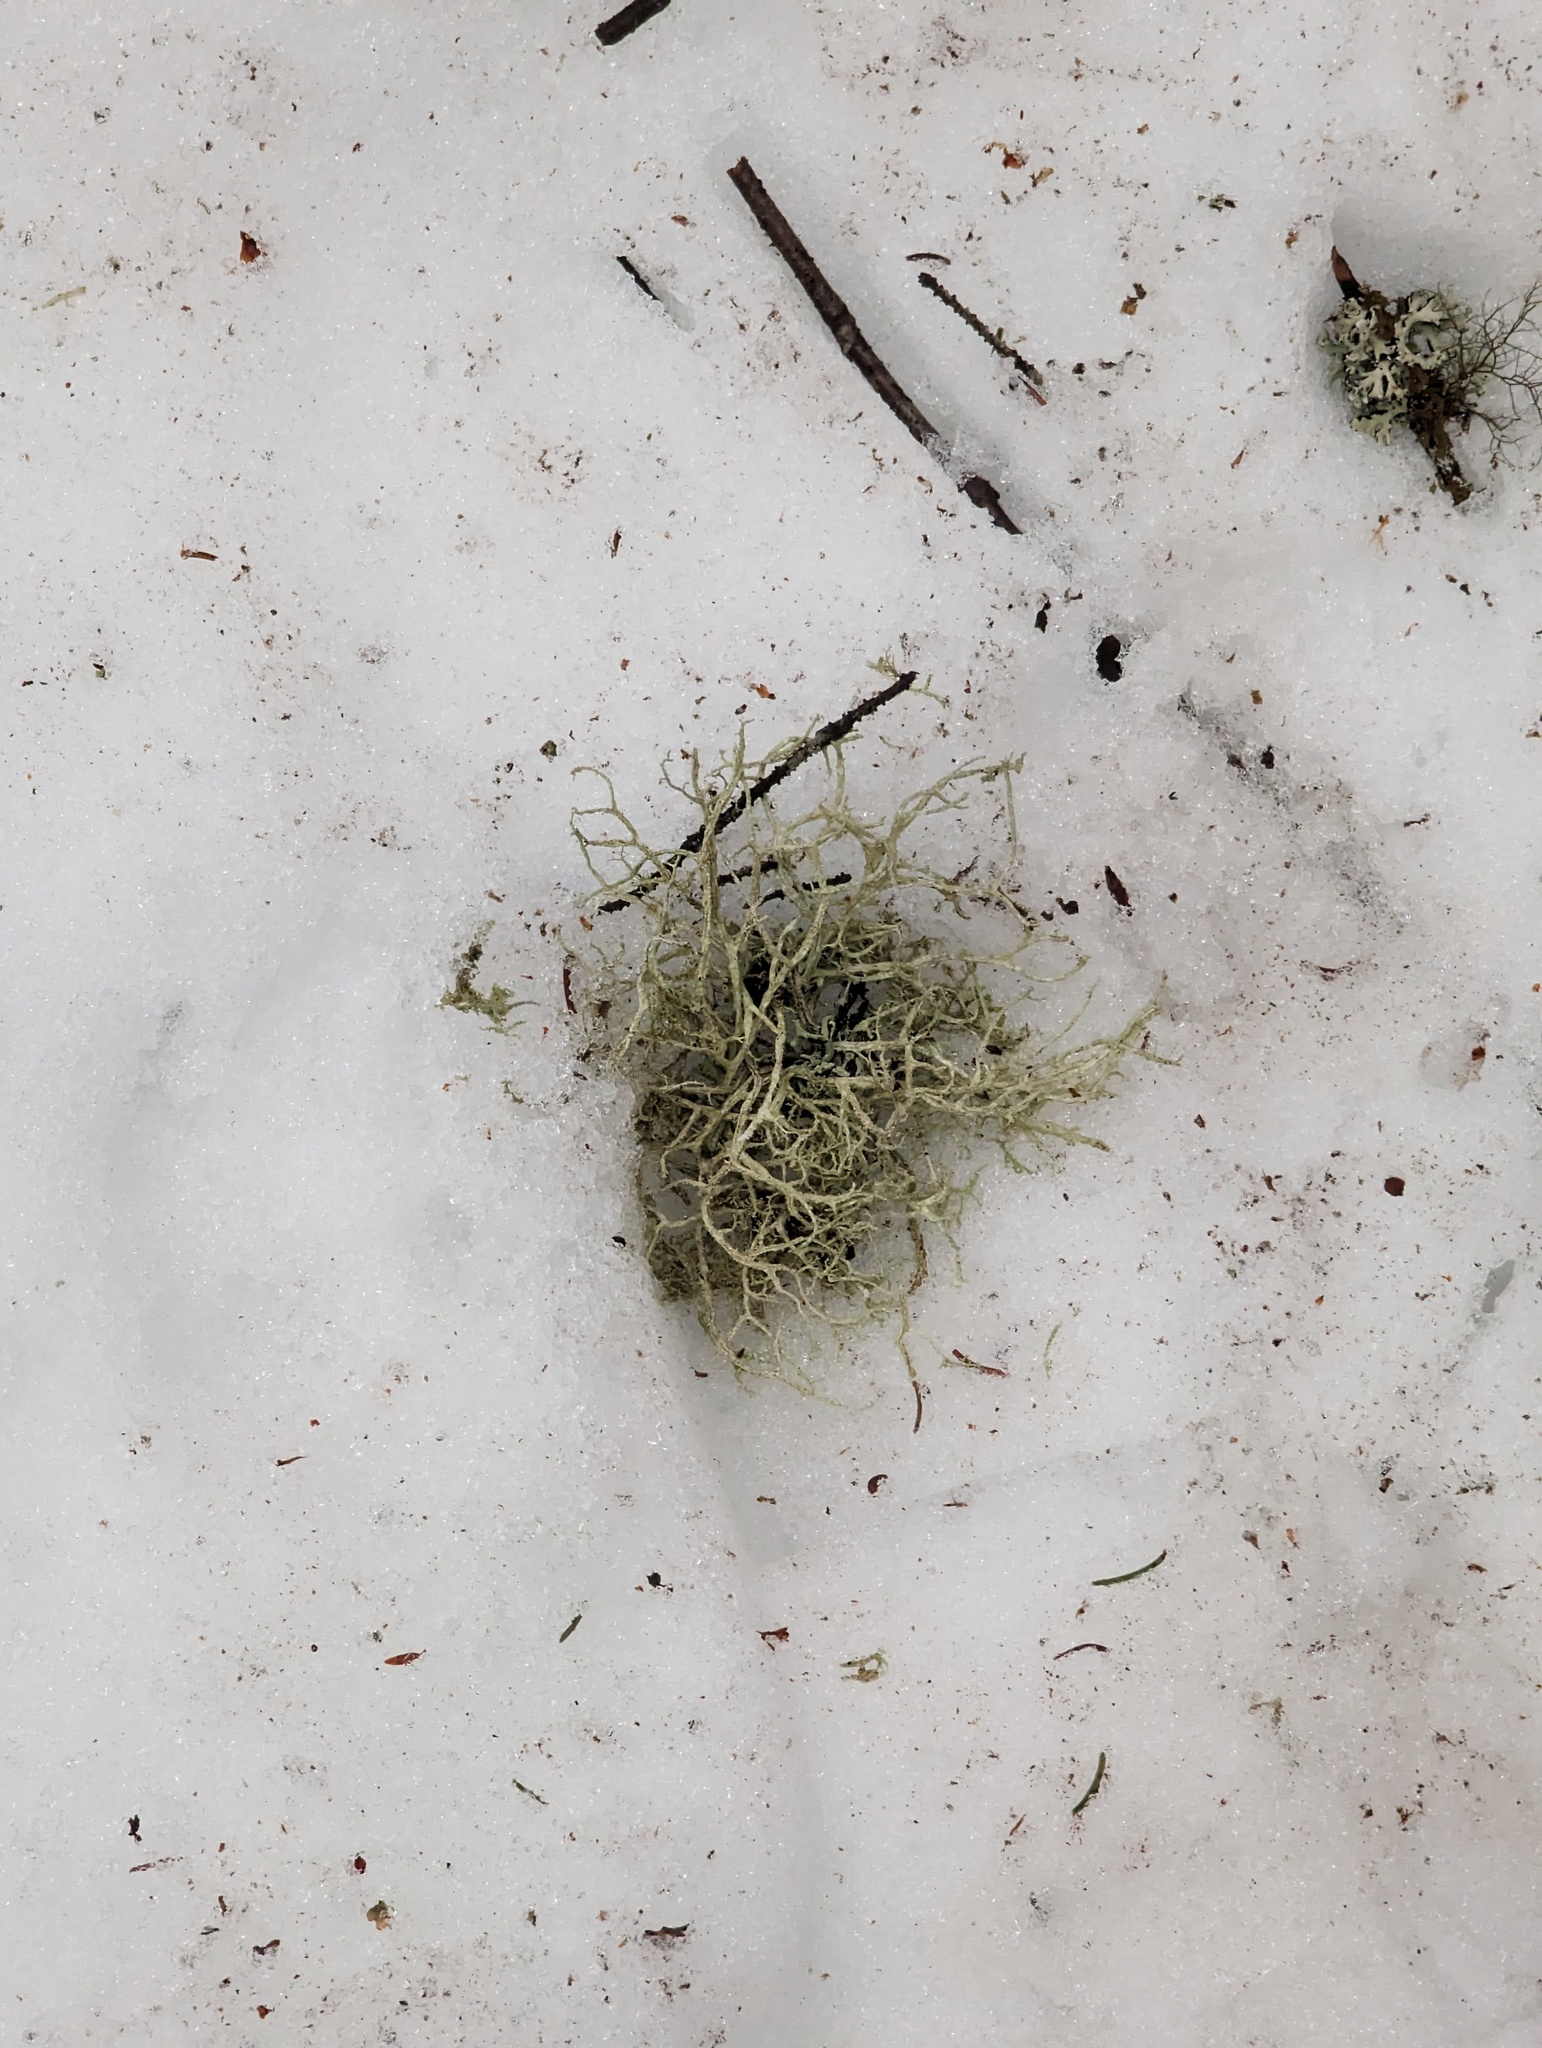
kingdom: Fungi
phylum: Ascomycota
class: Lecanoromycetes
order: Lecanorales
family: Parmeliaceae
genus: Evernia
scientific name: Evernia mesomorpha
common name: Boreal oak moss lichen
